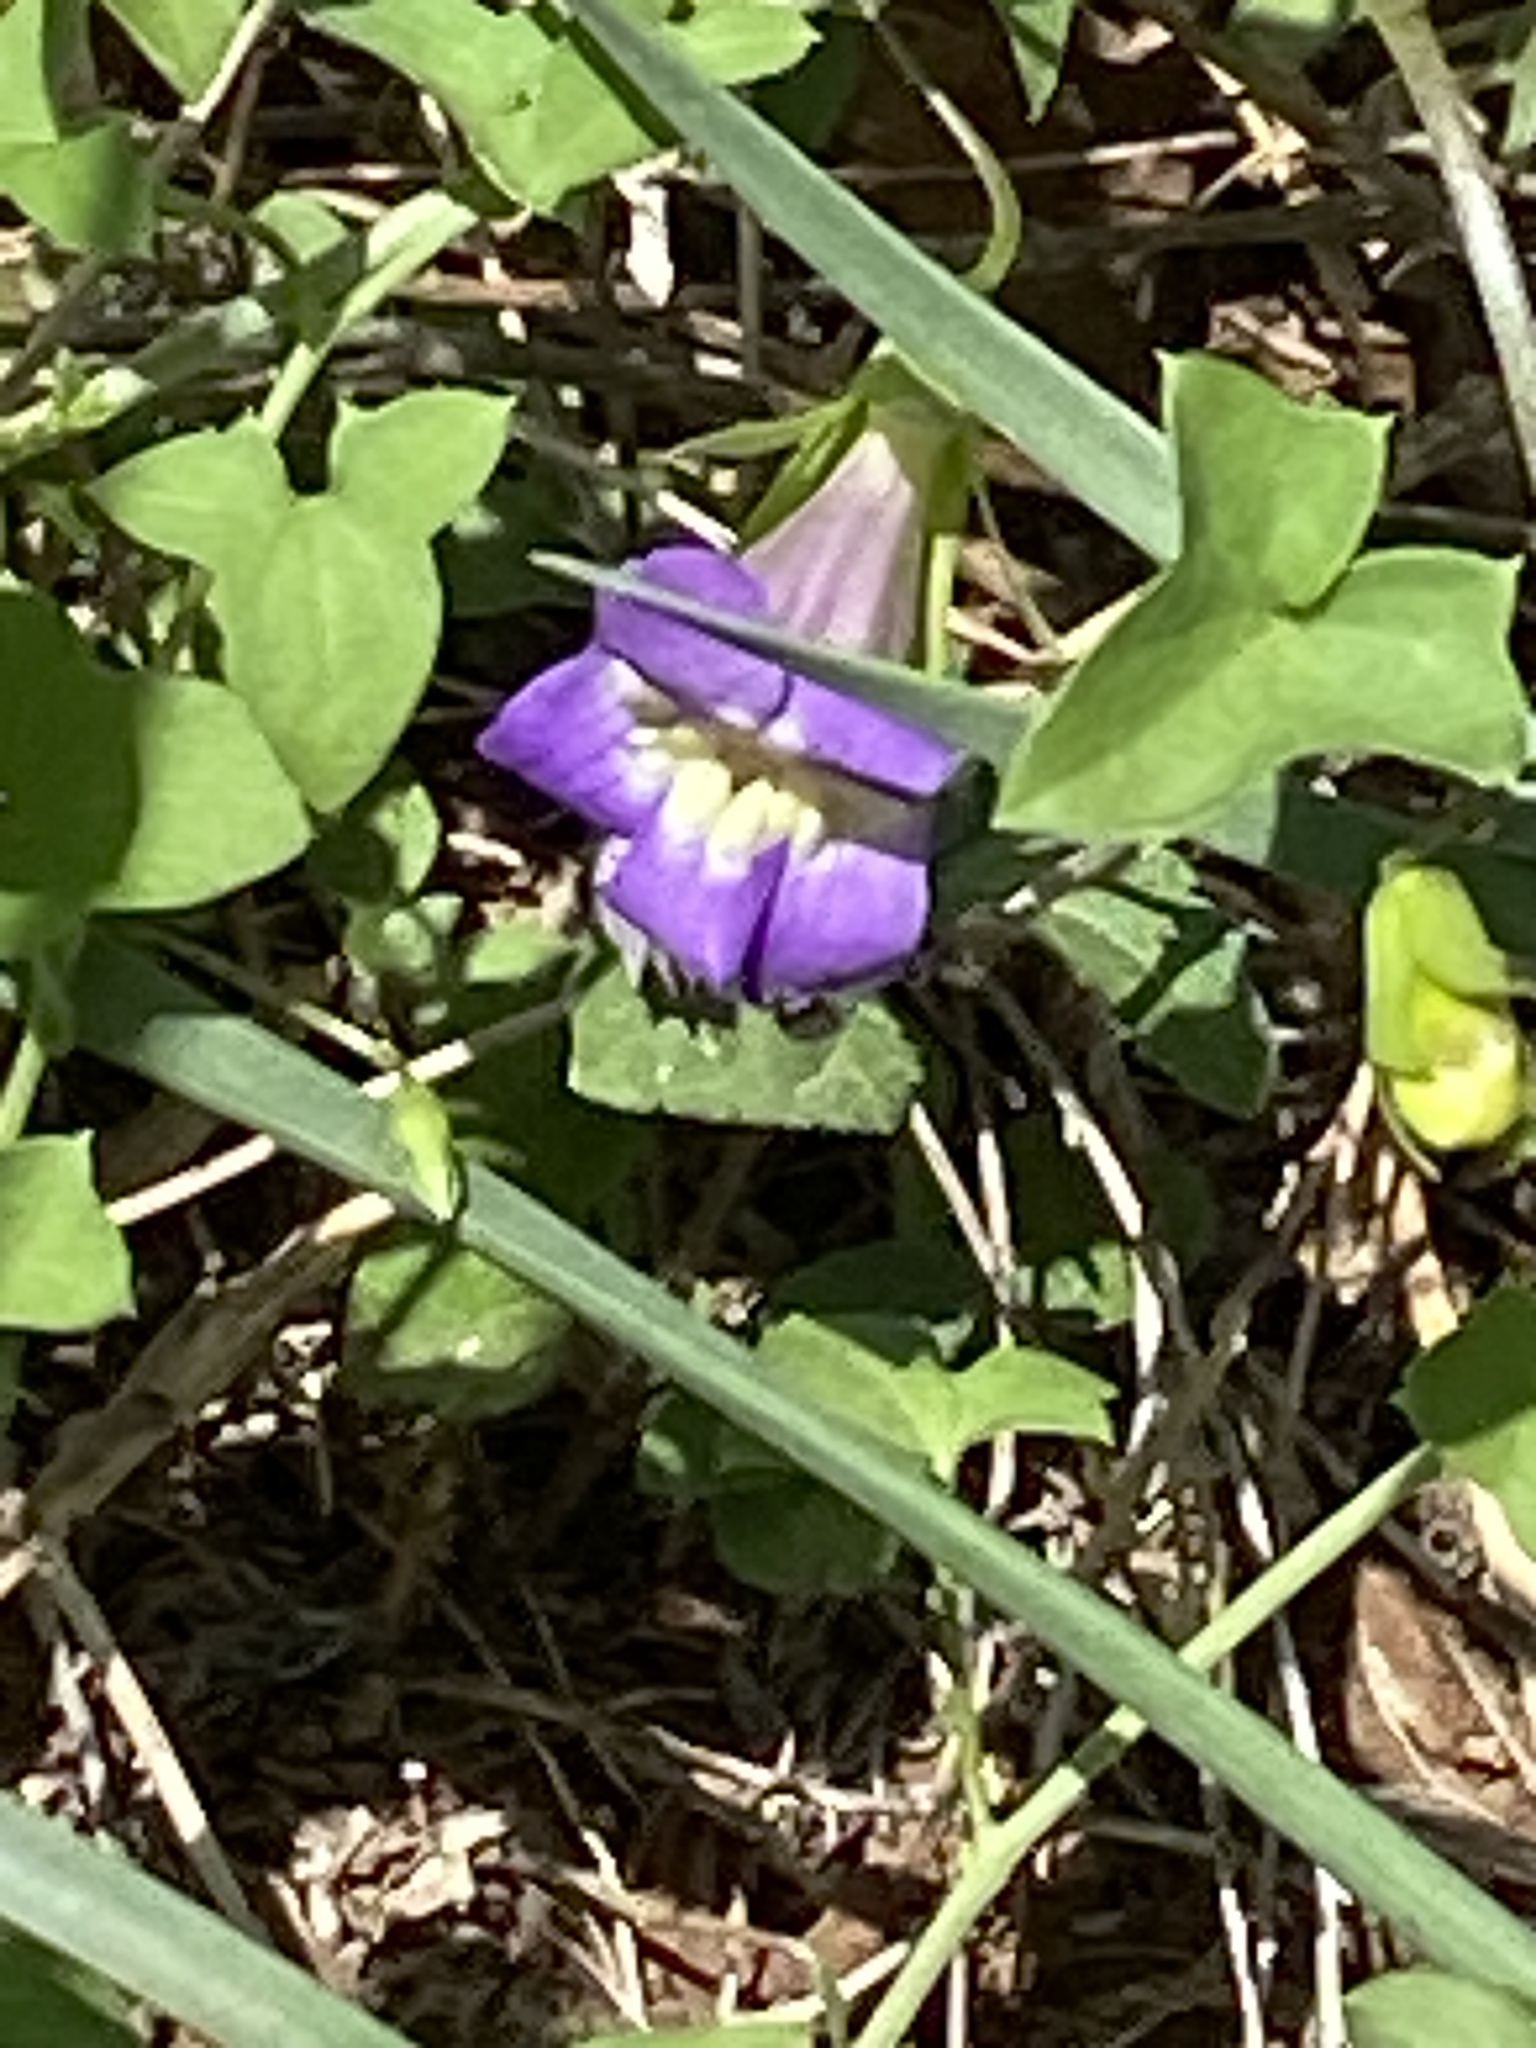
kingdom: Plantae
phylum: Tracheophyta
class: Magnoliopsida
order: Lamiales
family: Plantaginaceae
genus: Maurandella
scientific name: Maurandella antirrhiniflora
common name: Violet twining-snapdragon
